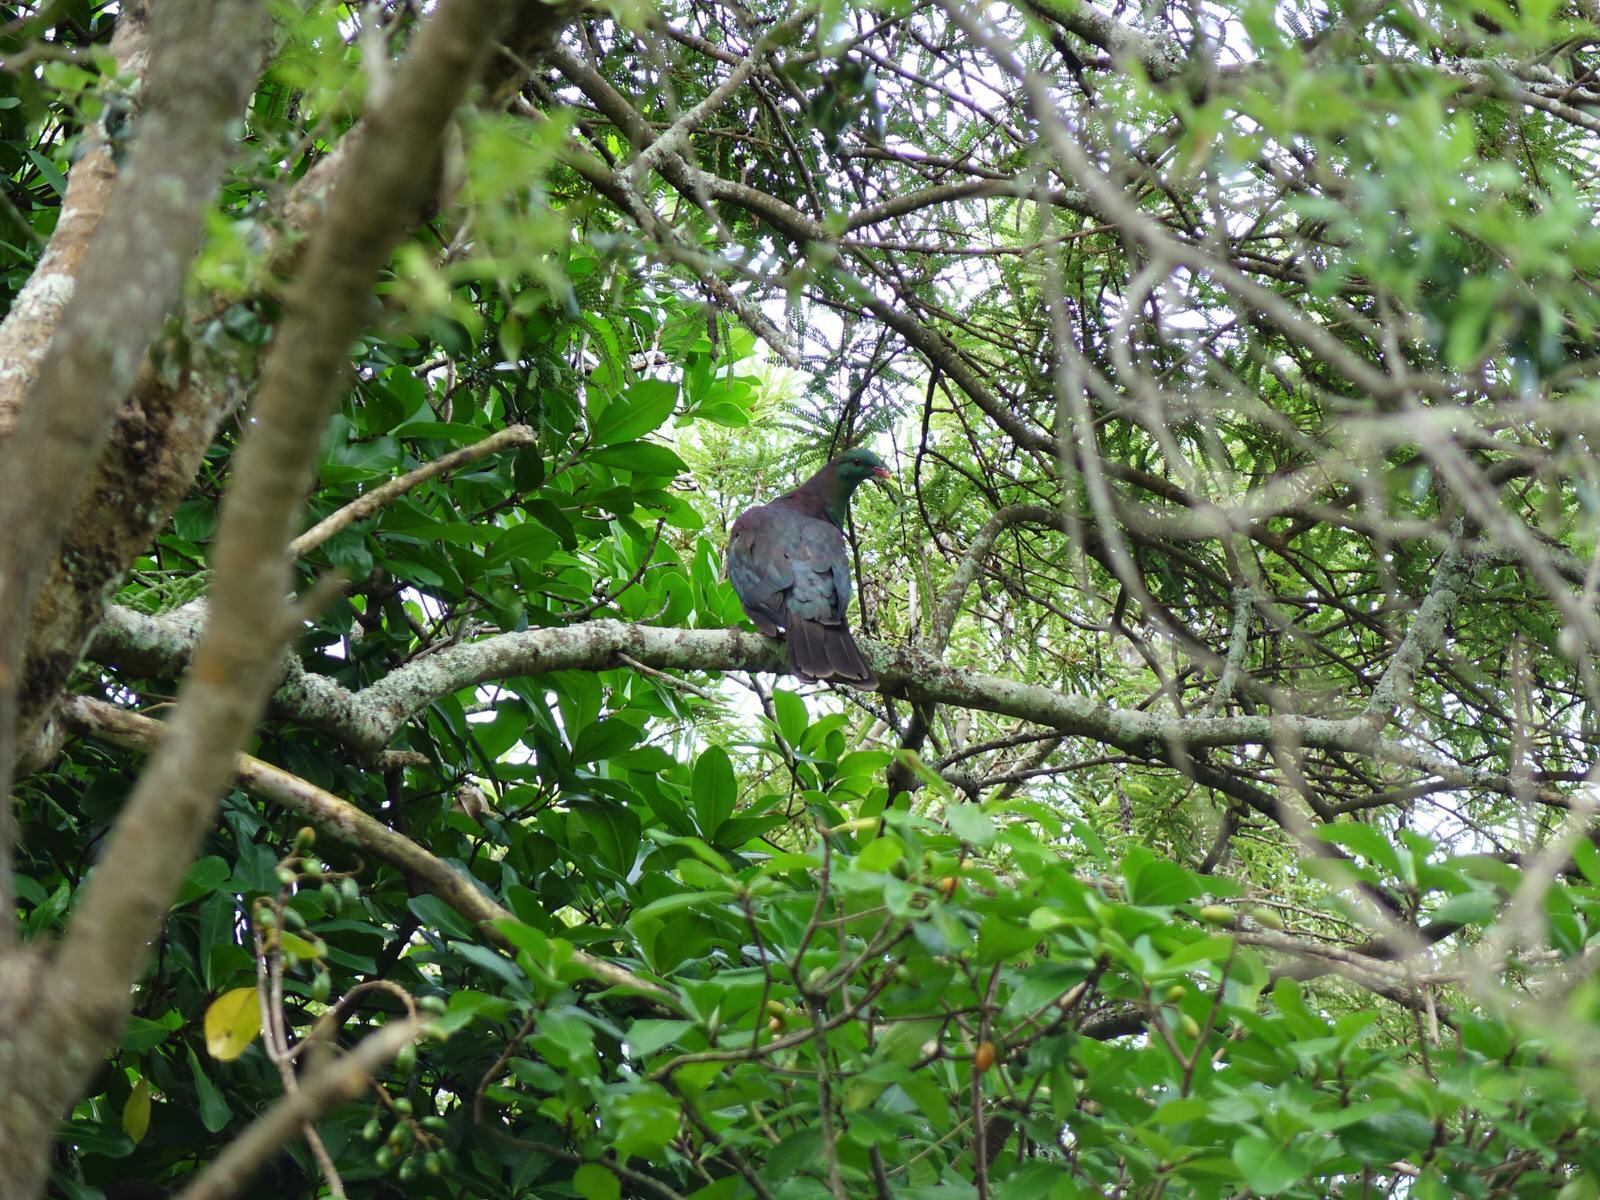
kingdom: Animalia
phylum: Chordata
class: Aves
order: Columbiformes
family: Columbidae
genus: Hemiphaga
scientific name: Hemiphaga novaeseelandiae
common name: New zealand pigeon
